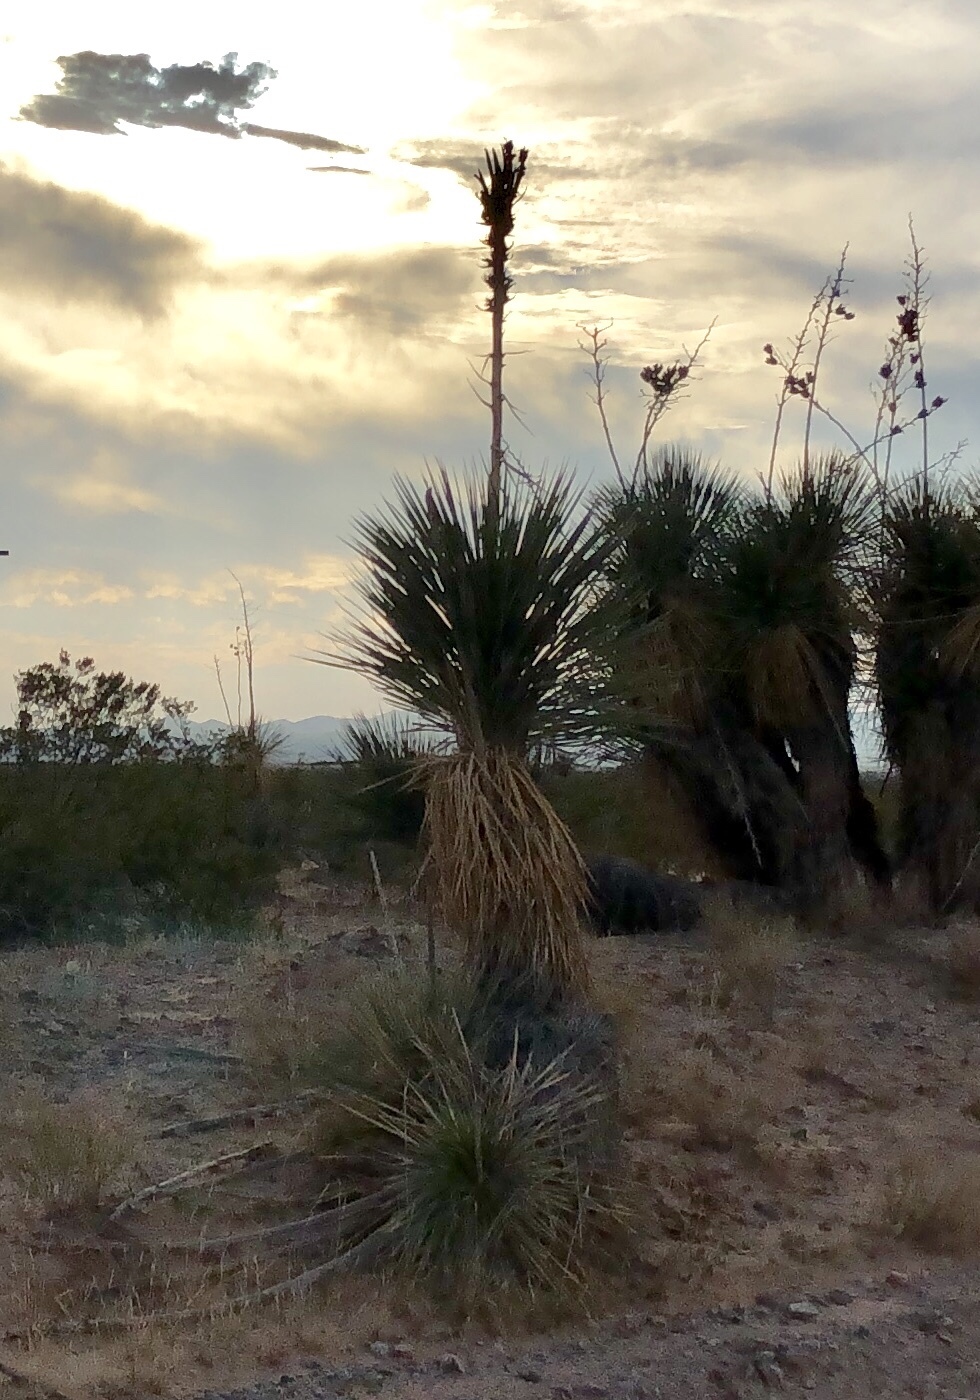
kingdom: Plantae
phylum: Tracheophyta
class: Liliopsida
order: Asparagales
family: Asparagaceae
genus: Yucca
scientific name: Yucca elata
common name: Palmella
